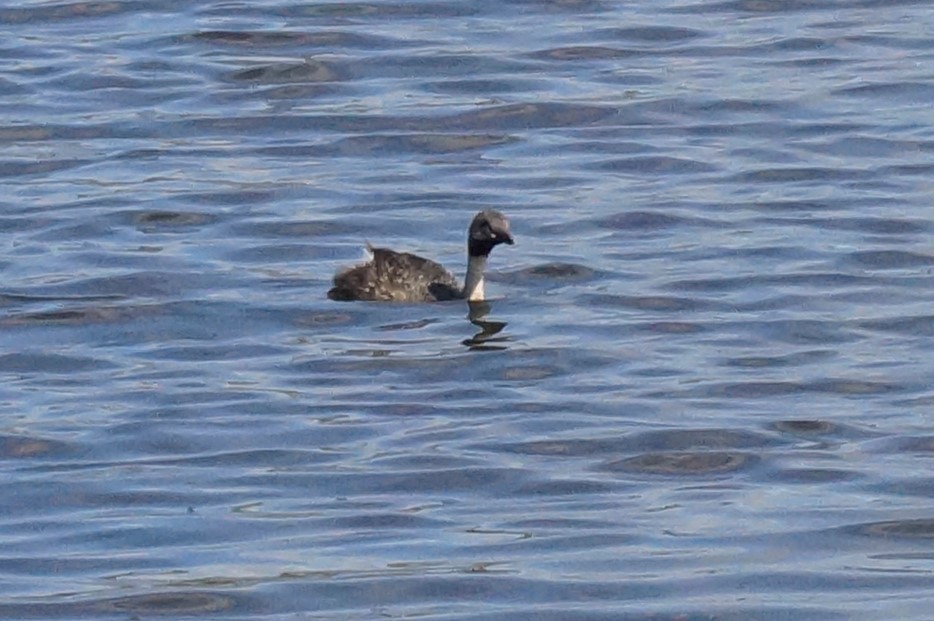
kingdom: Animalia
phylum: Chordata
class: Aves
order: Podicipediformes
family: Podicipedidae
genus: Poliocephalus
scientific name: Poliocephalus poliocephalus
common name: Hoary-headed grebe
